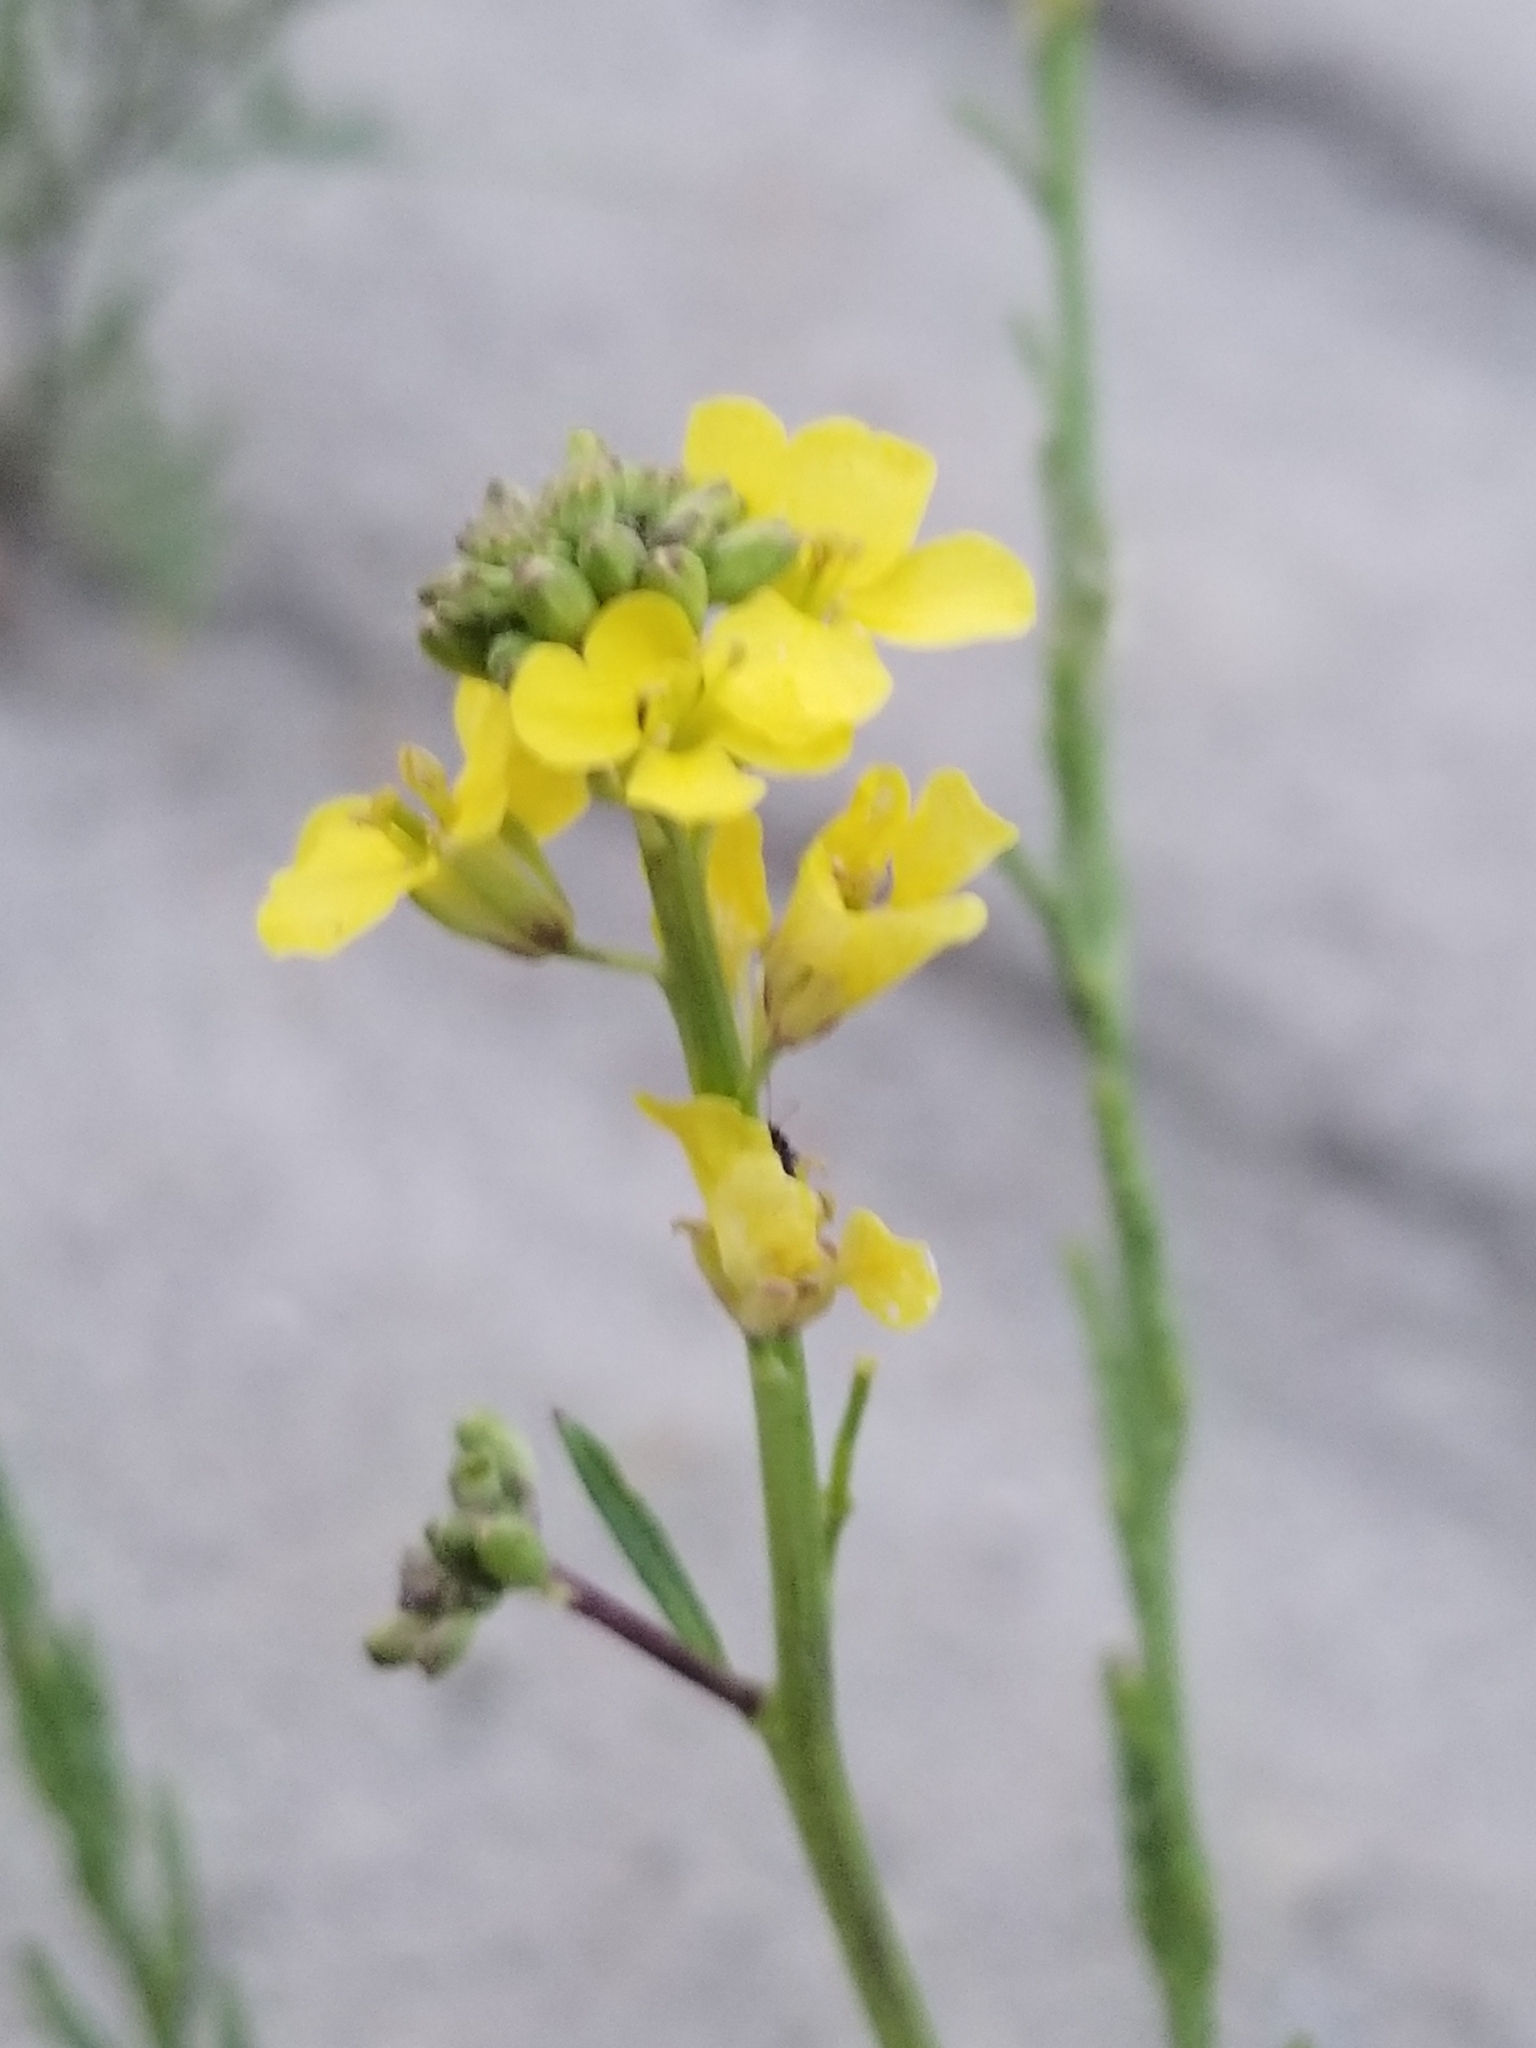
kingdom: Plantae
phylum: Tracheophyta
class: Magnoliopsida
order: Brassicales
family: Brassicaceae
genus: Hirschfeldia
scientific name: Hirschfeldia incana
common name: Hoary mustard
